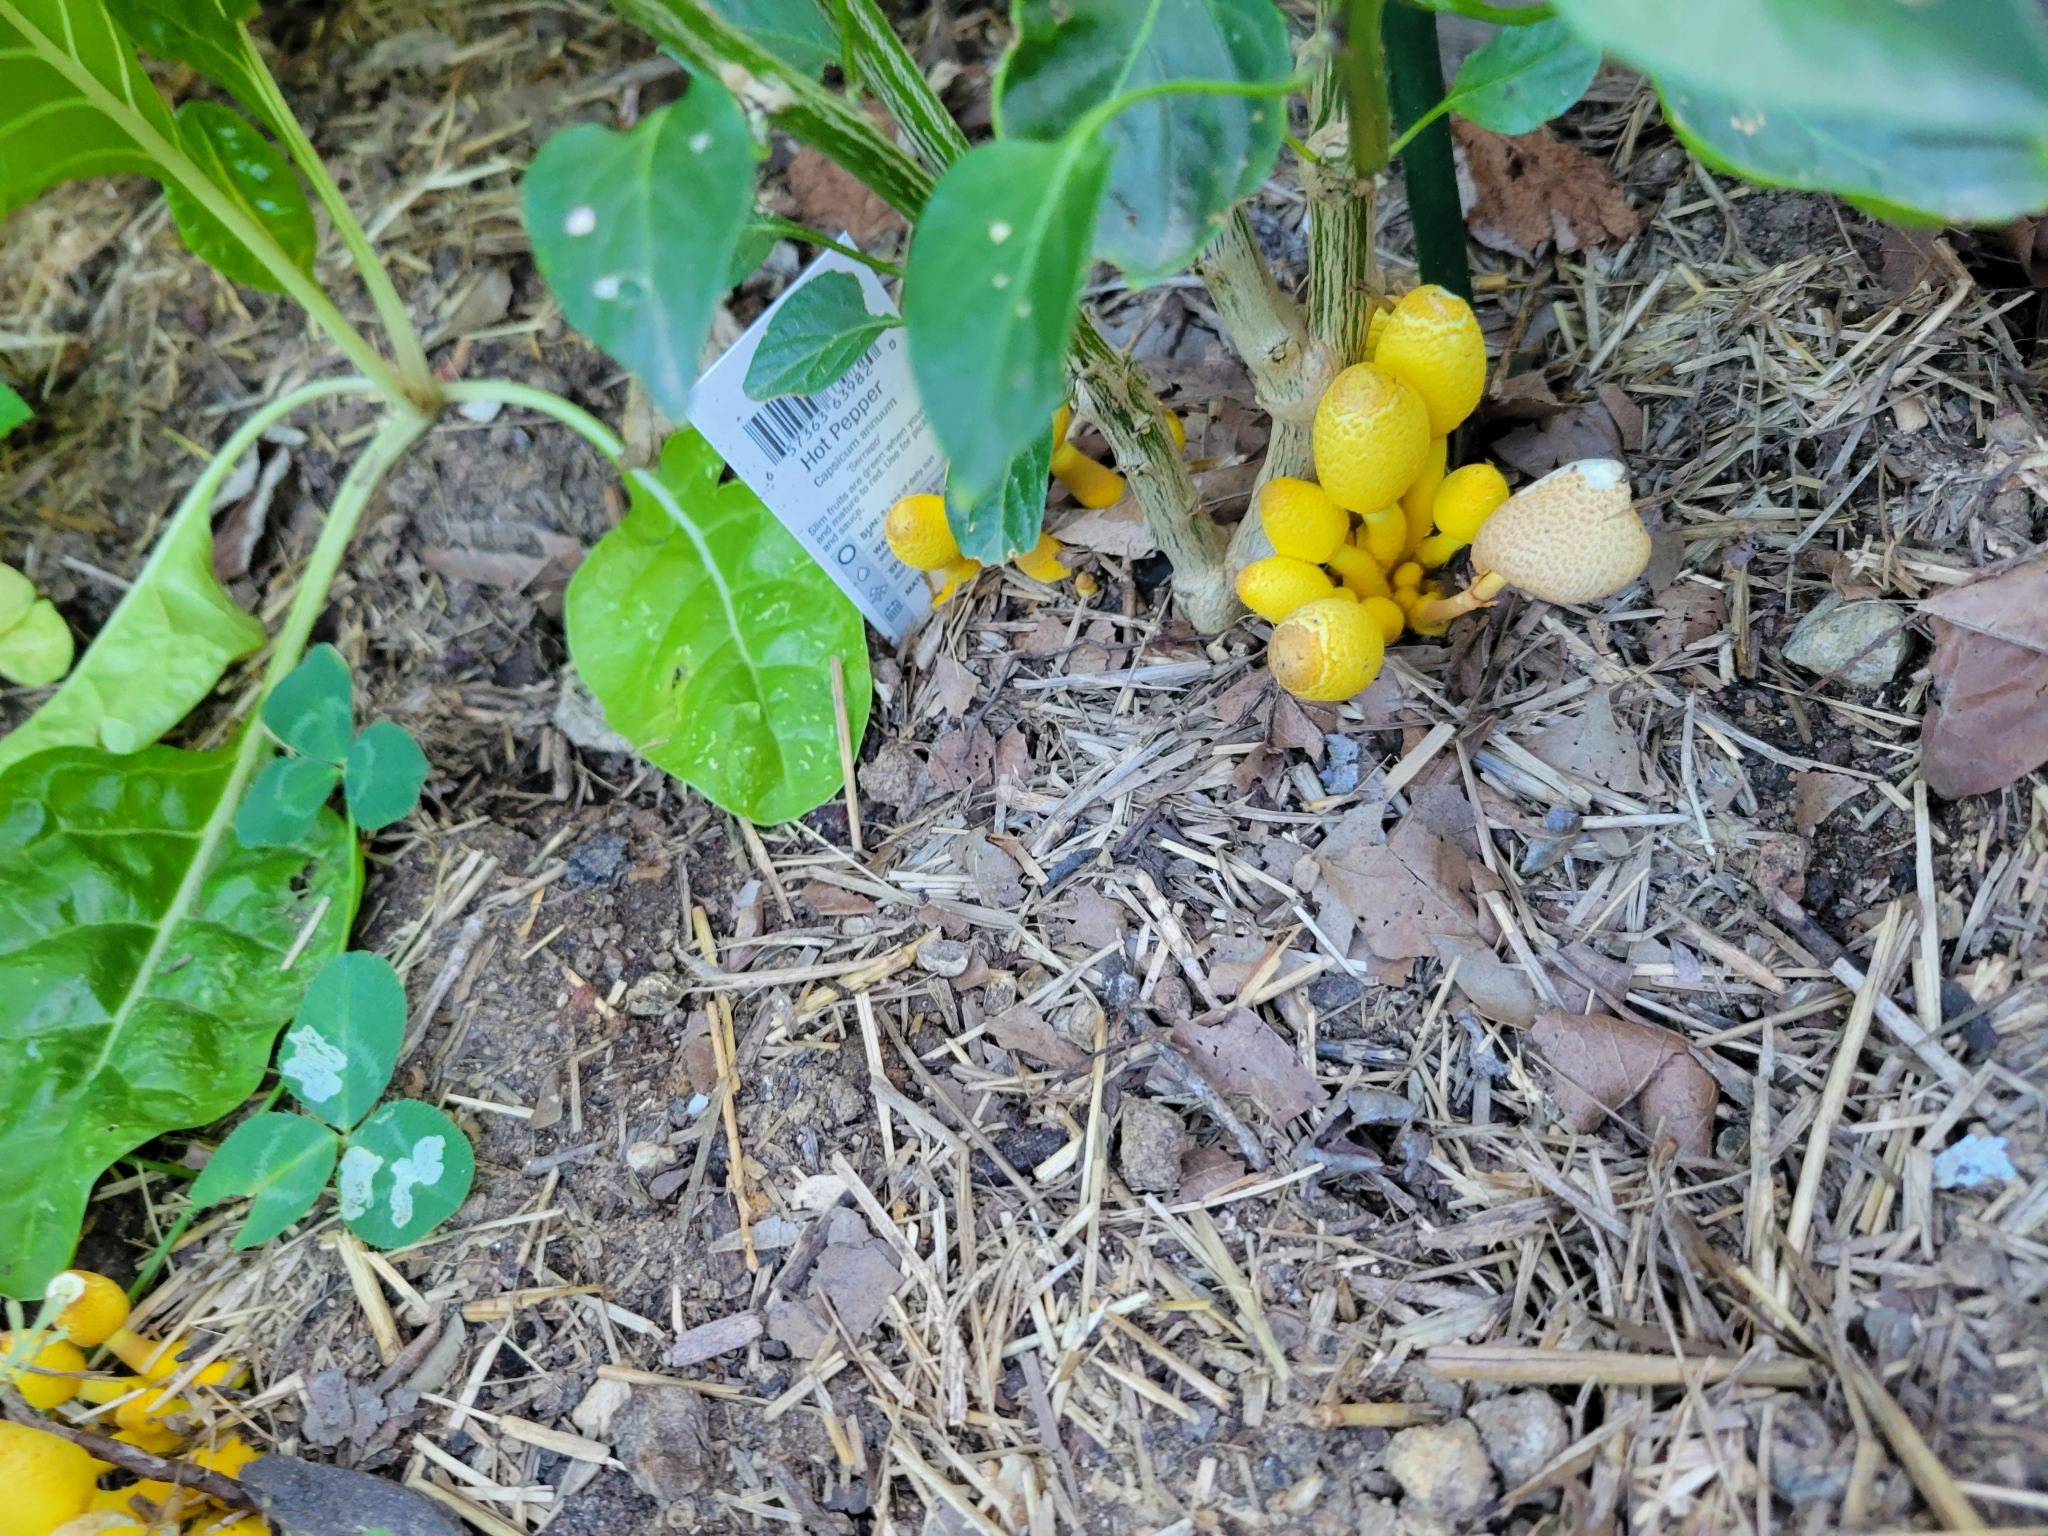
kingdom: Fungi
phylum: Basidiomycota
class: Agaricomycetes
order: Agaricales
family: Agaricaceae
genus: Leucocoprinus
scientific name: Leucocoprinus birnbaumii
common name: Plantpot dapperling
